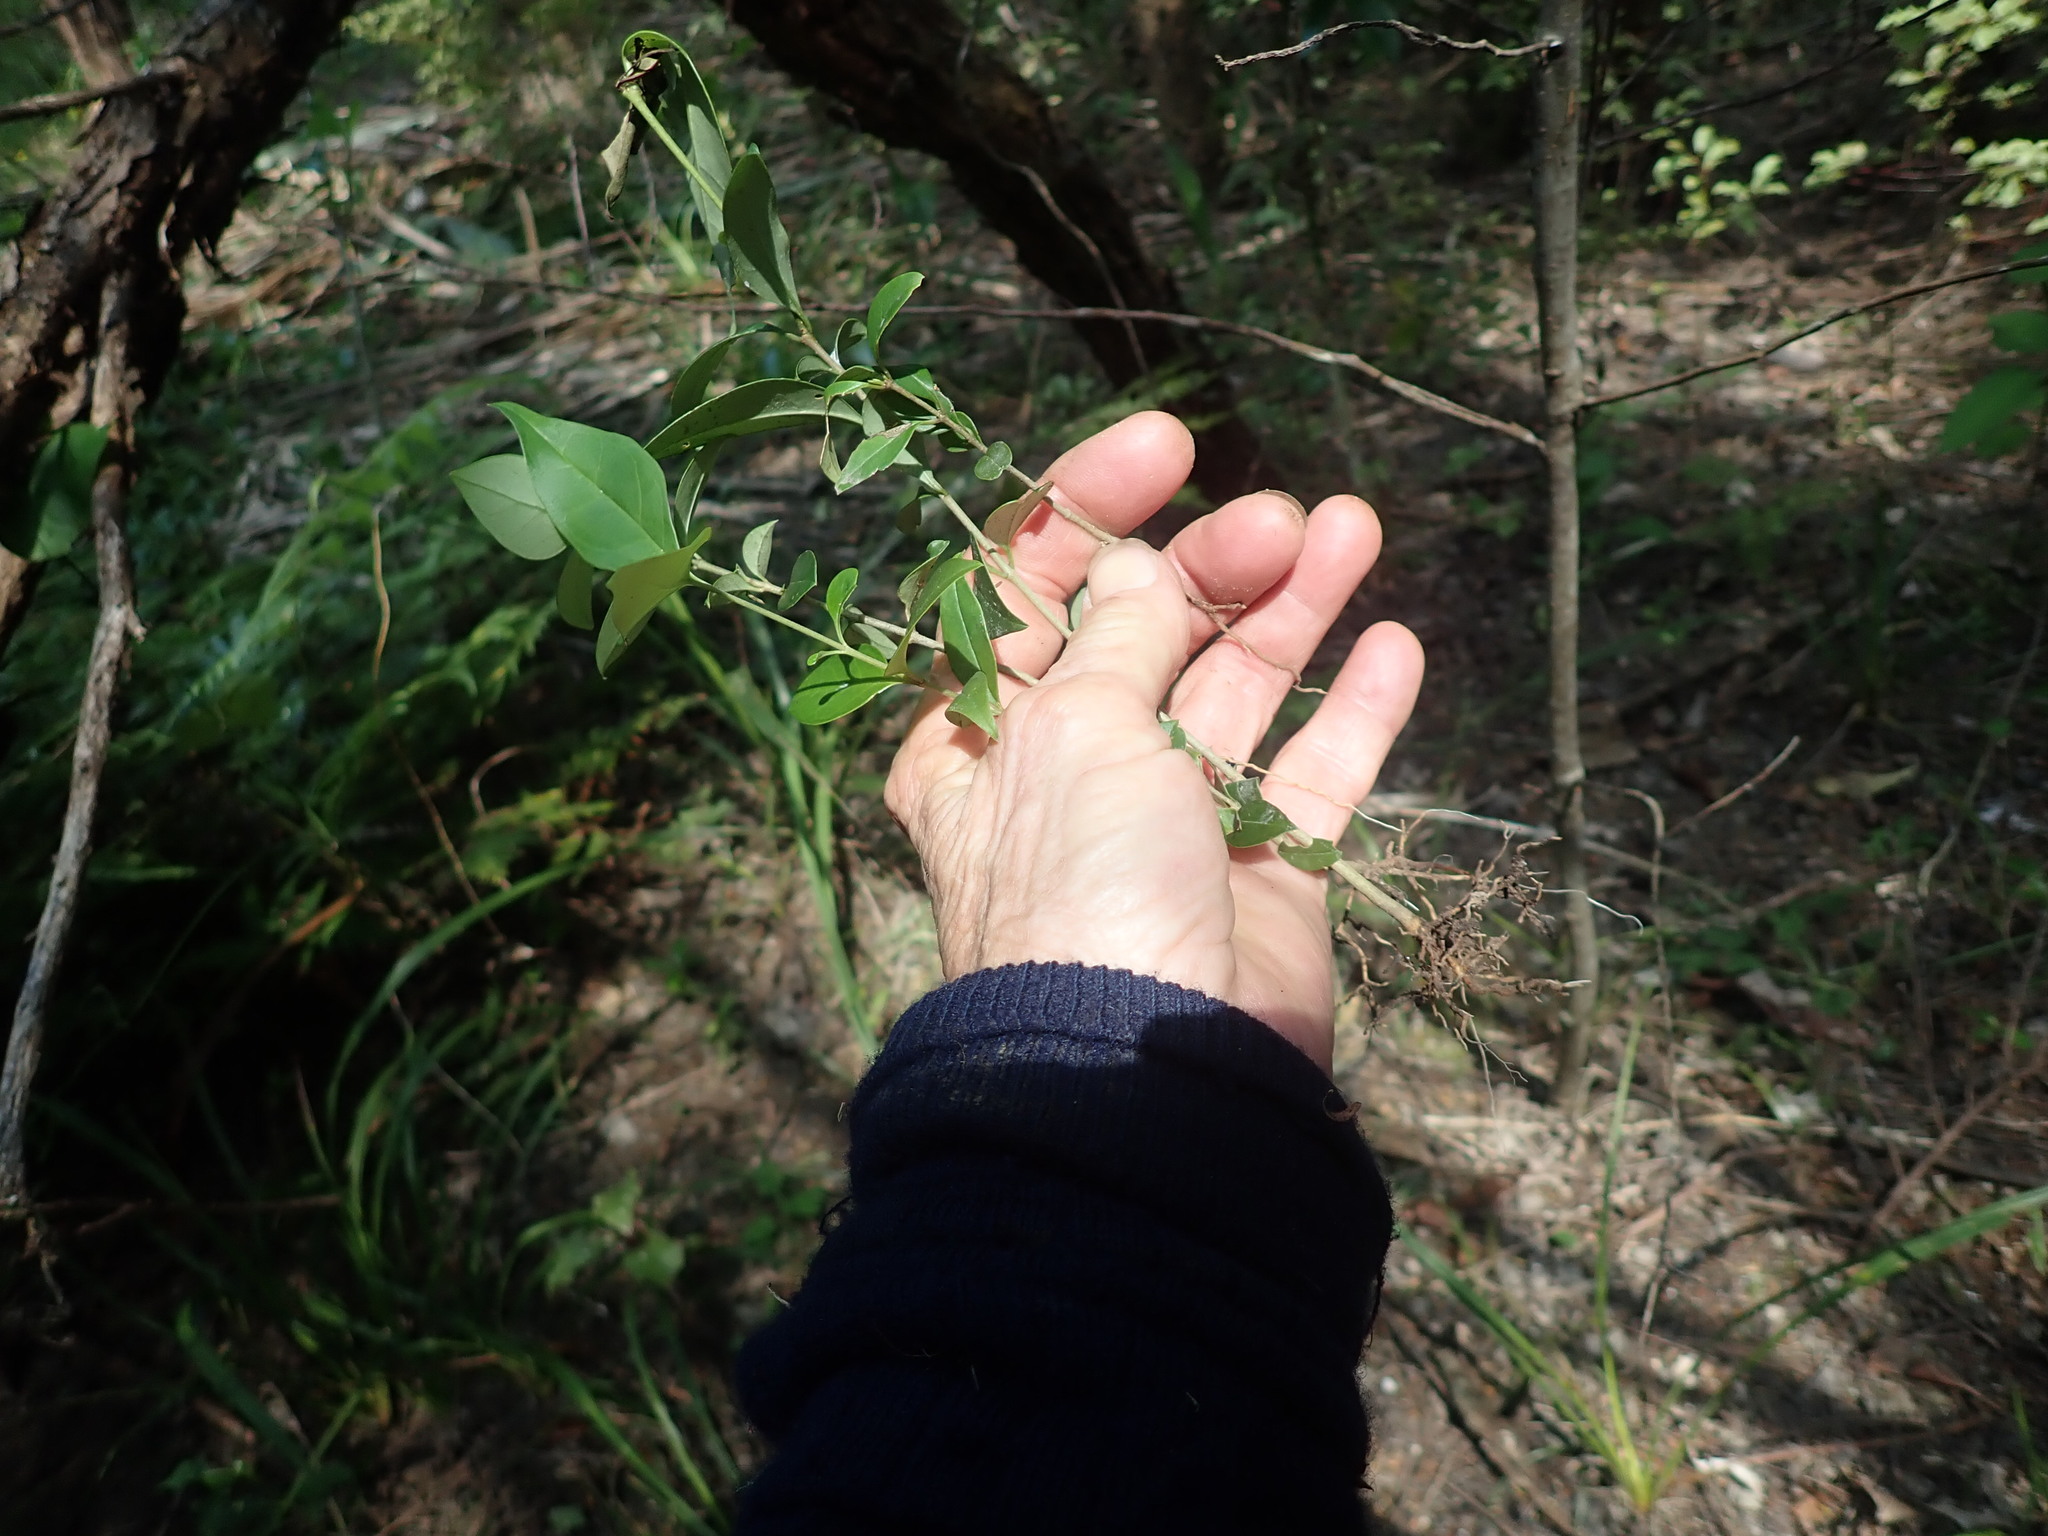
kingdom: Plantae
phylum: Tracheophyta
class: Magnoliopsida
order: Lamiales
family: Oleaceae
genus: Ligustrum
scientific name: Ligustrum lucidum
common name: Glossy privet
